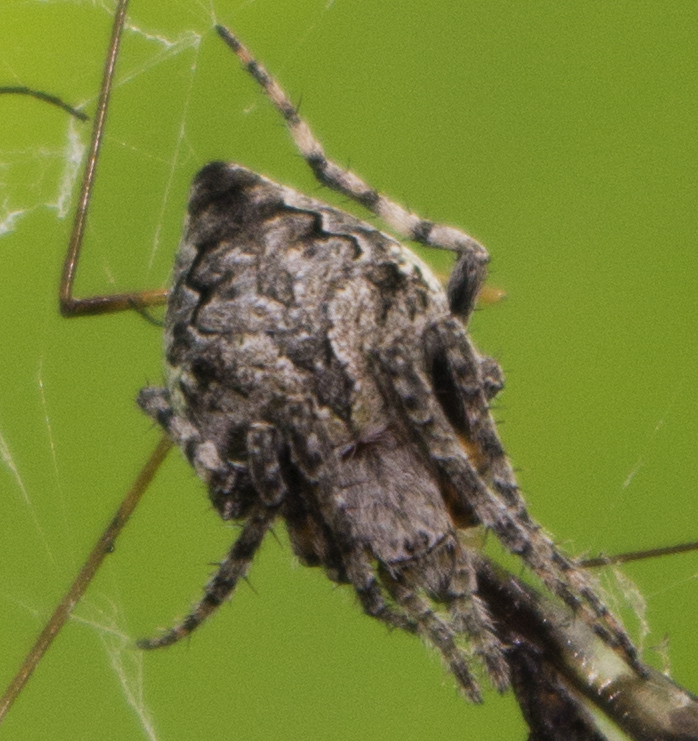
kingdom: Animalia
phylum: Arthropoda
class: Arachnida
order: Araneae
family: Araneidae
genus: Eustala
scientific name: Eustala anastera
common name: Orb weavers
